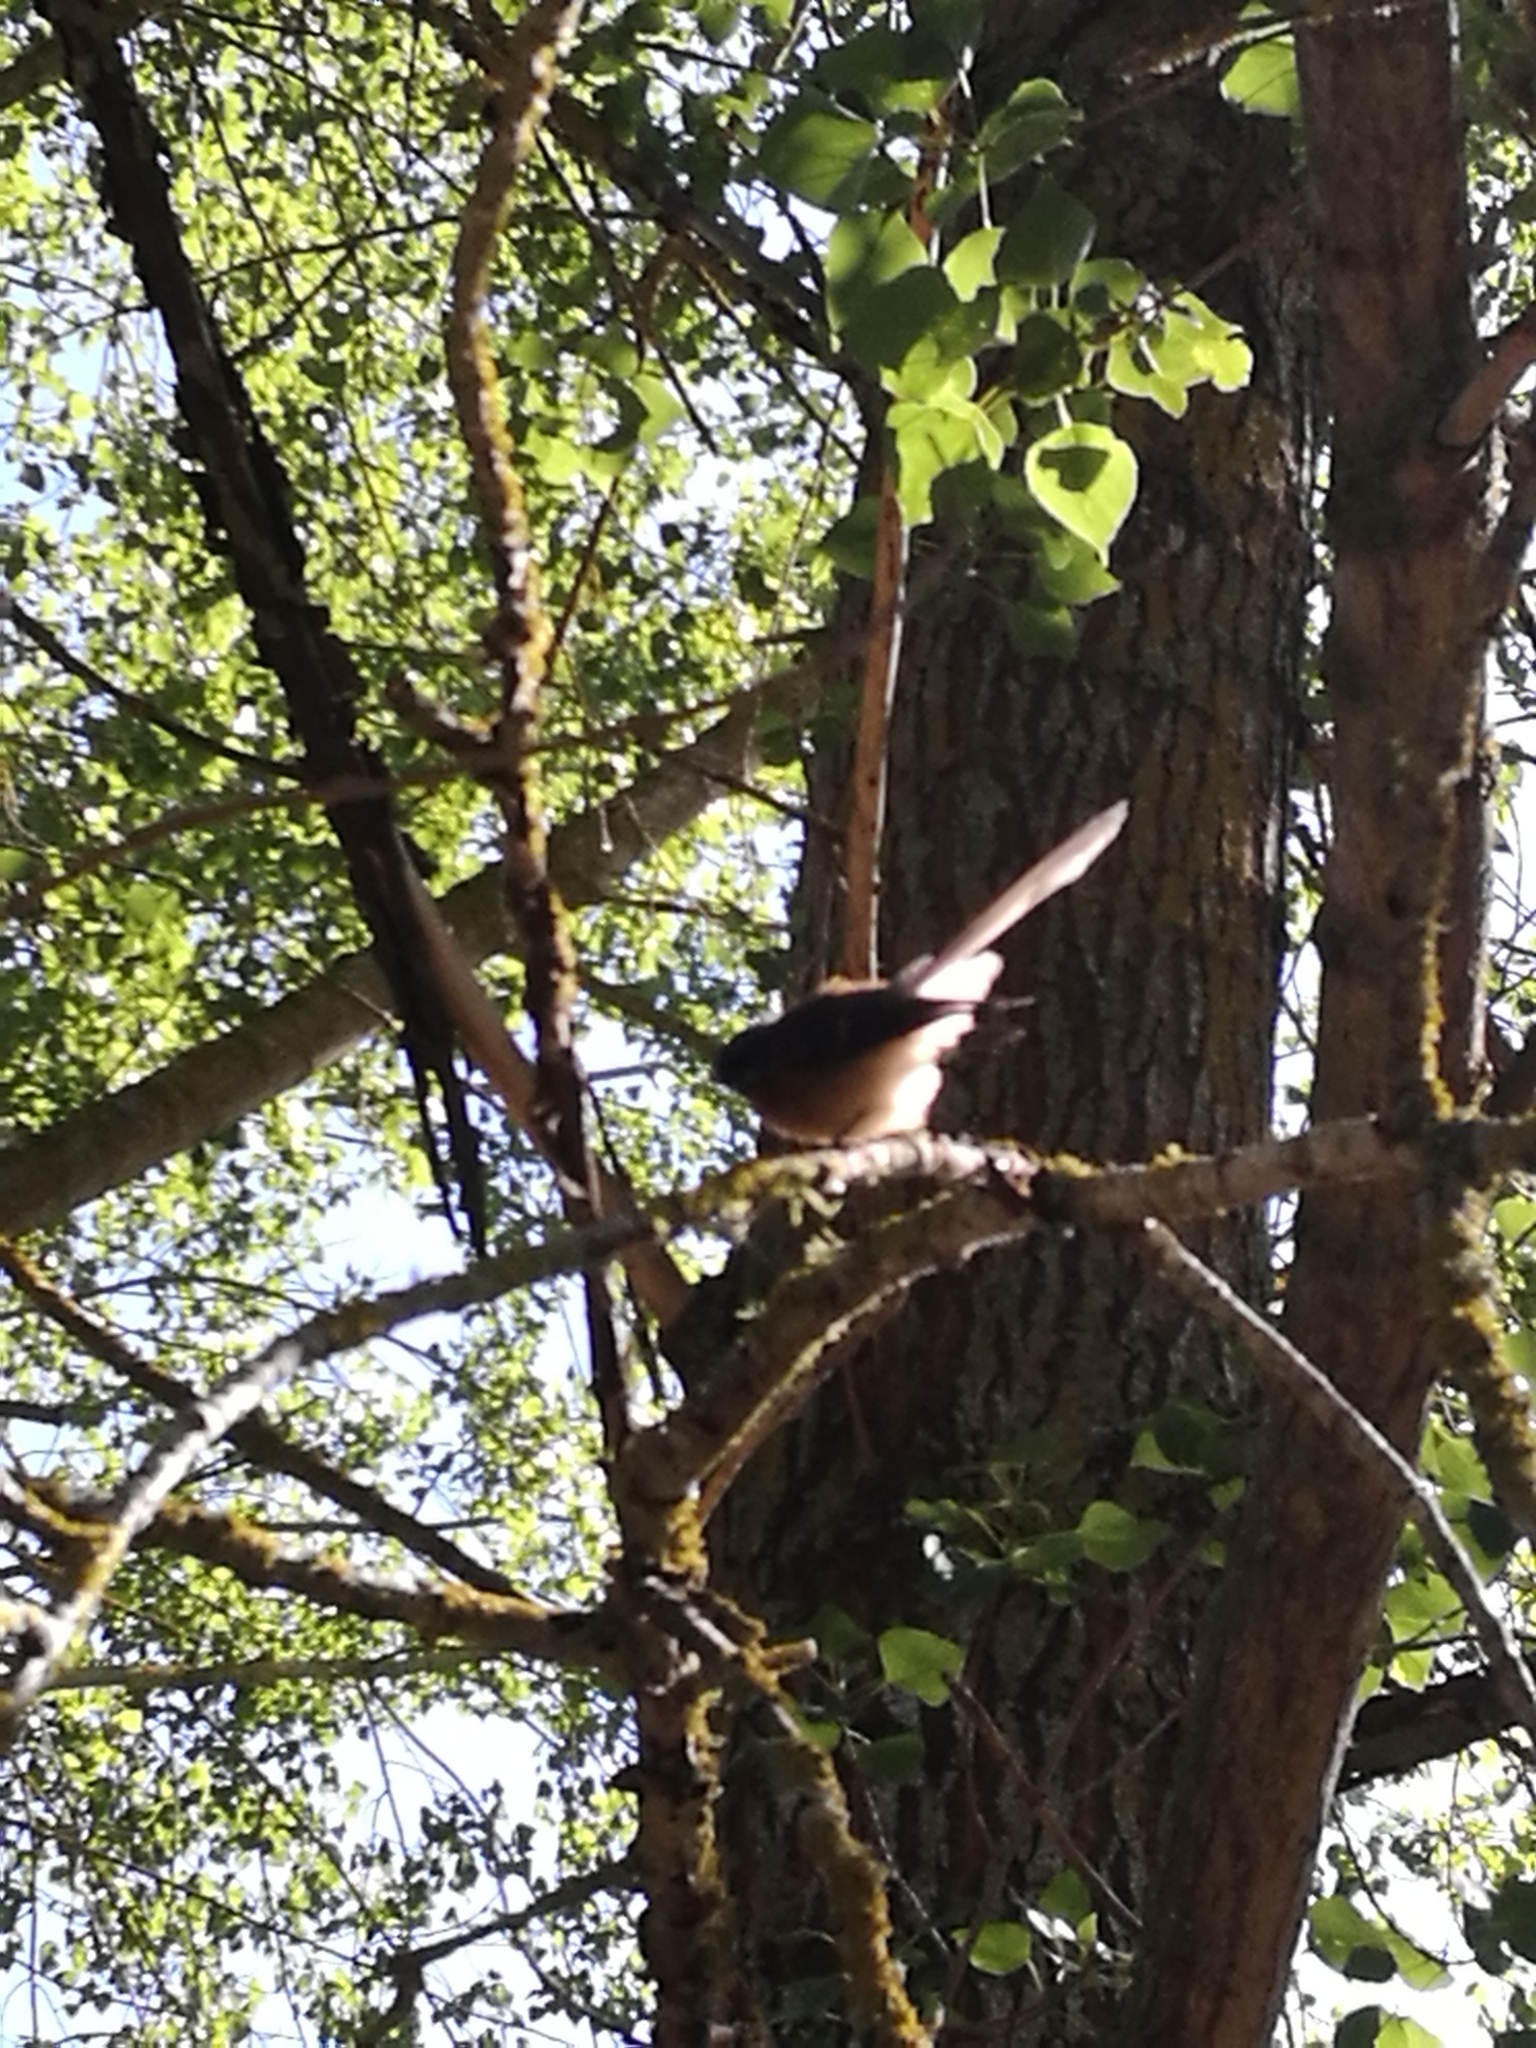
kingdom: Animalia
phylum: Chordata
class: Aves
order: Passeriformes
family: Rhipiduridae
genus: Rhipidura
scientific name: Rhipidura fuliginosa
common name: New zealand fantail
